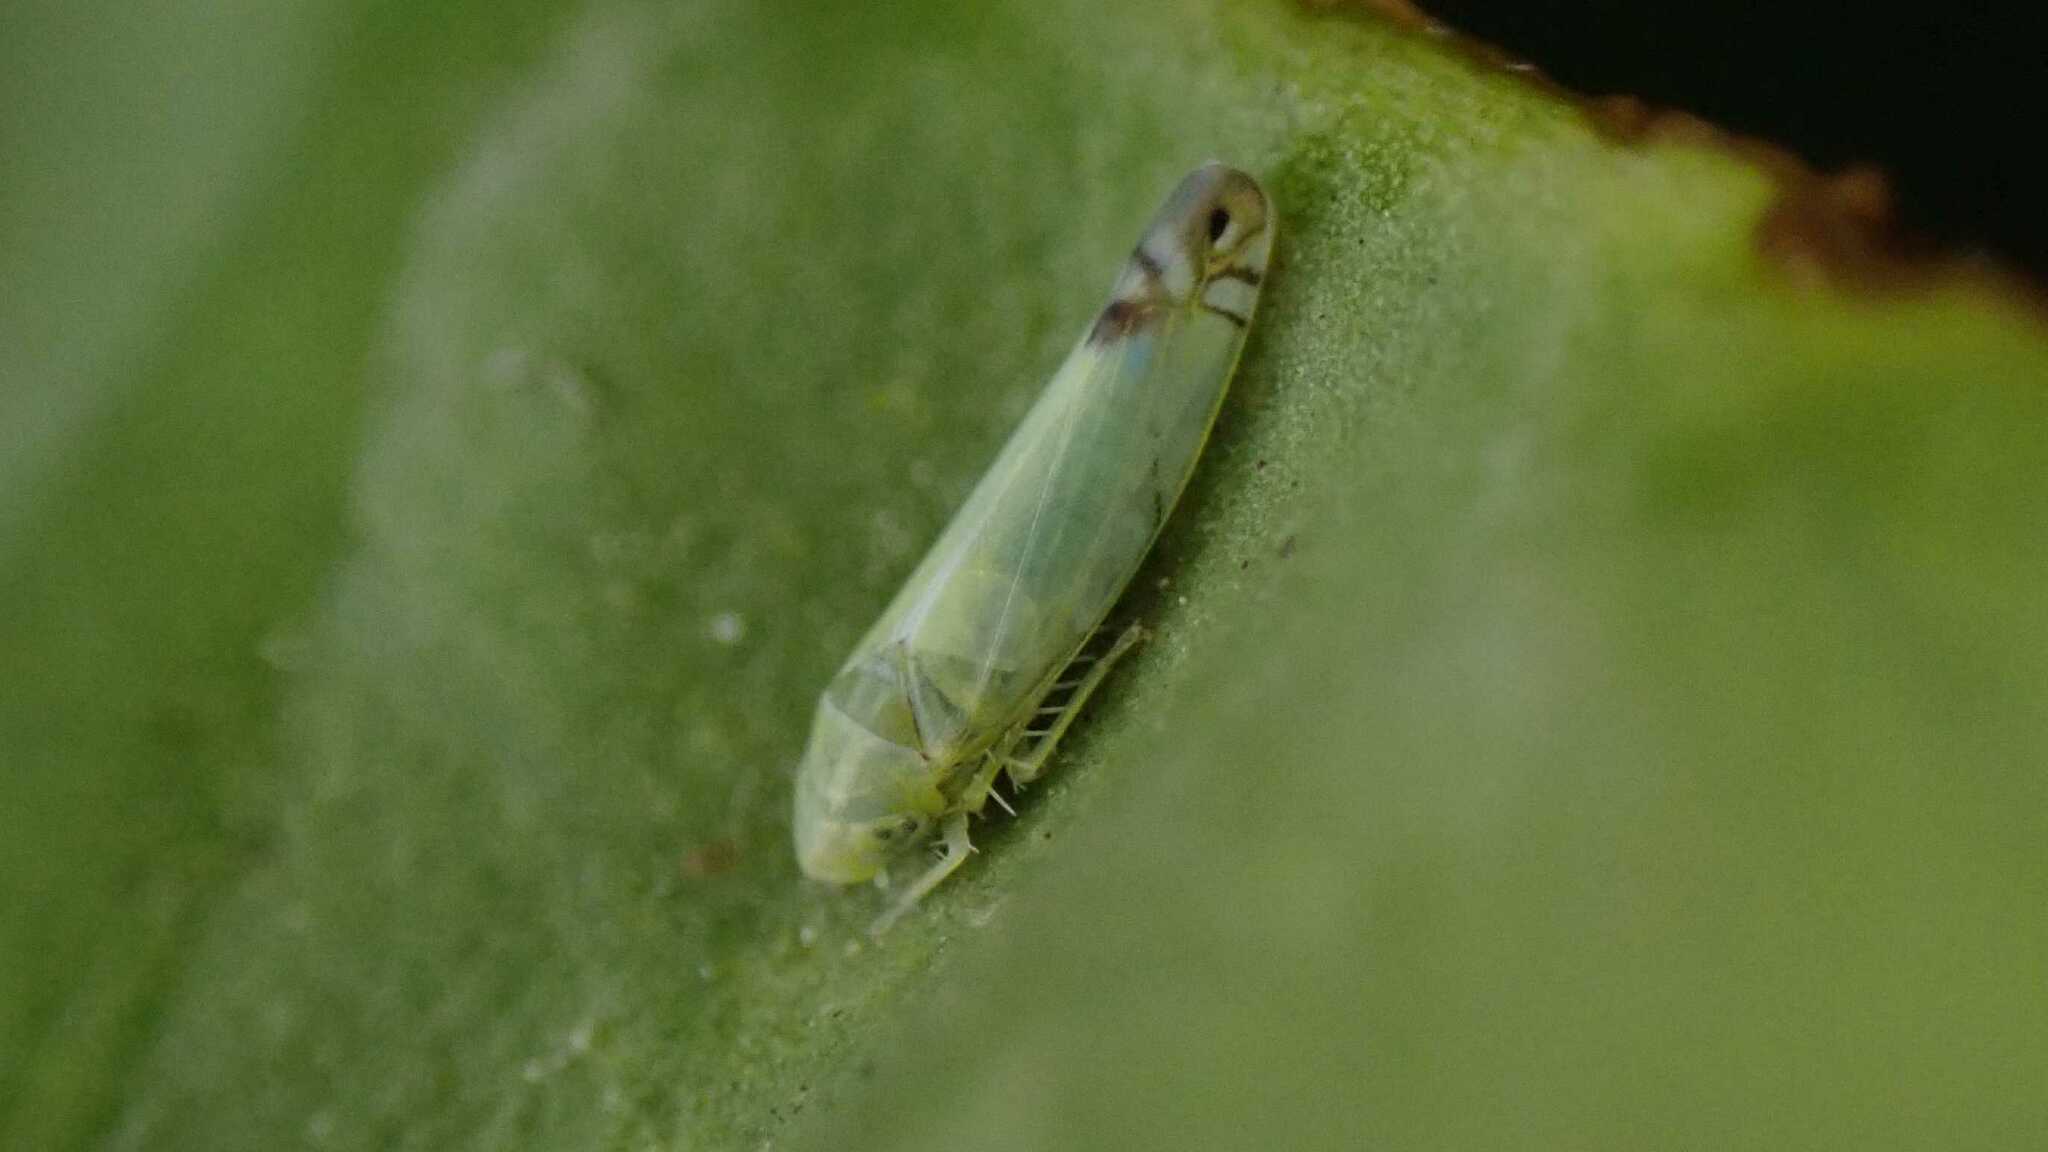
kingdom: Animalia
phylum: Arthropoda
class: Insecta
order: Hemiptera
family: Cicadellidae
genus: Zyginella
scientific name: Zyginella pulchra
